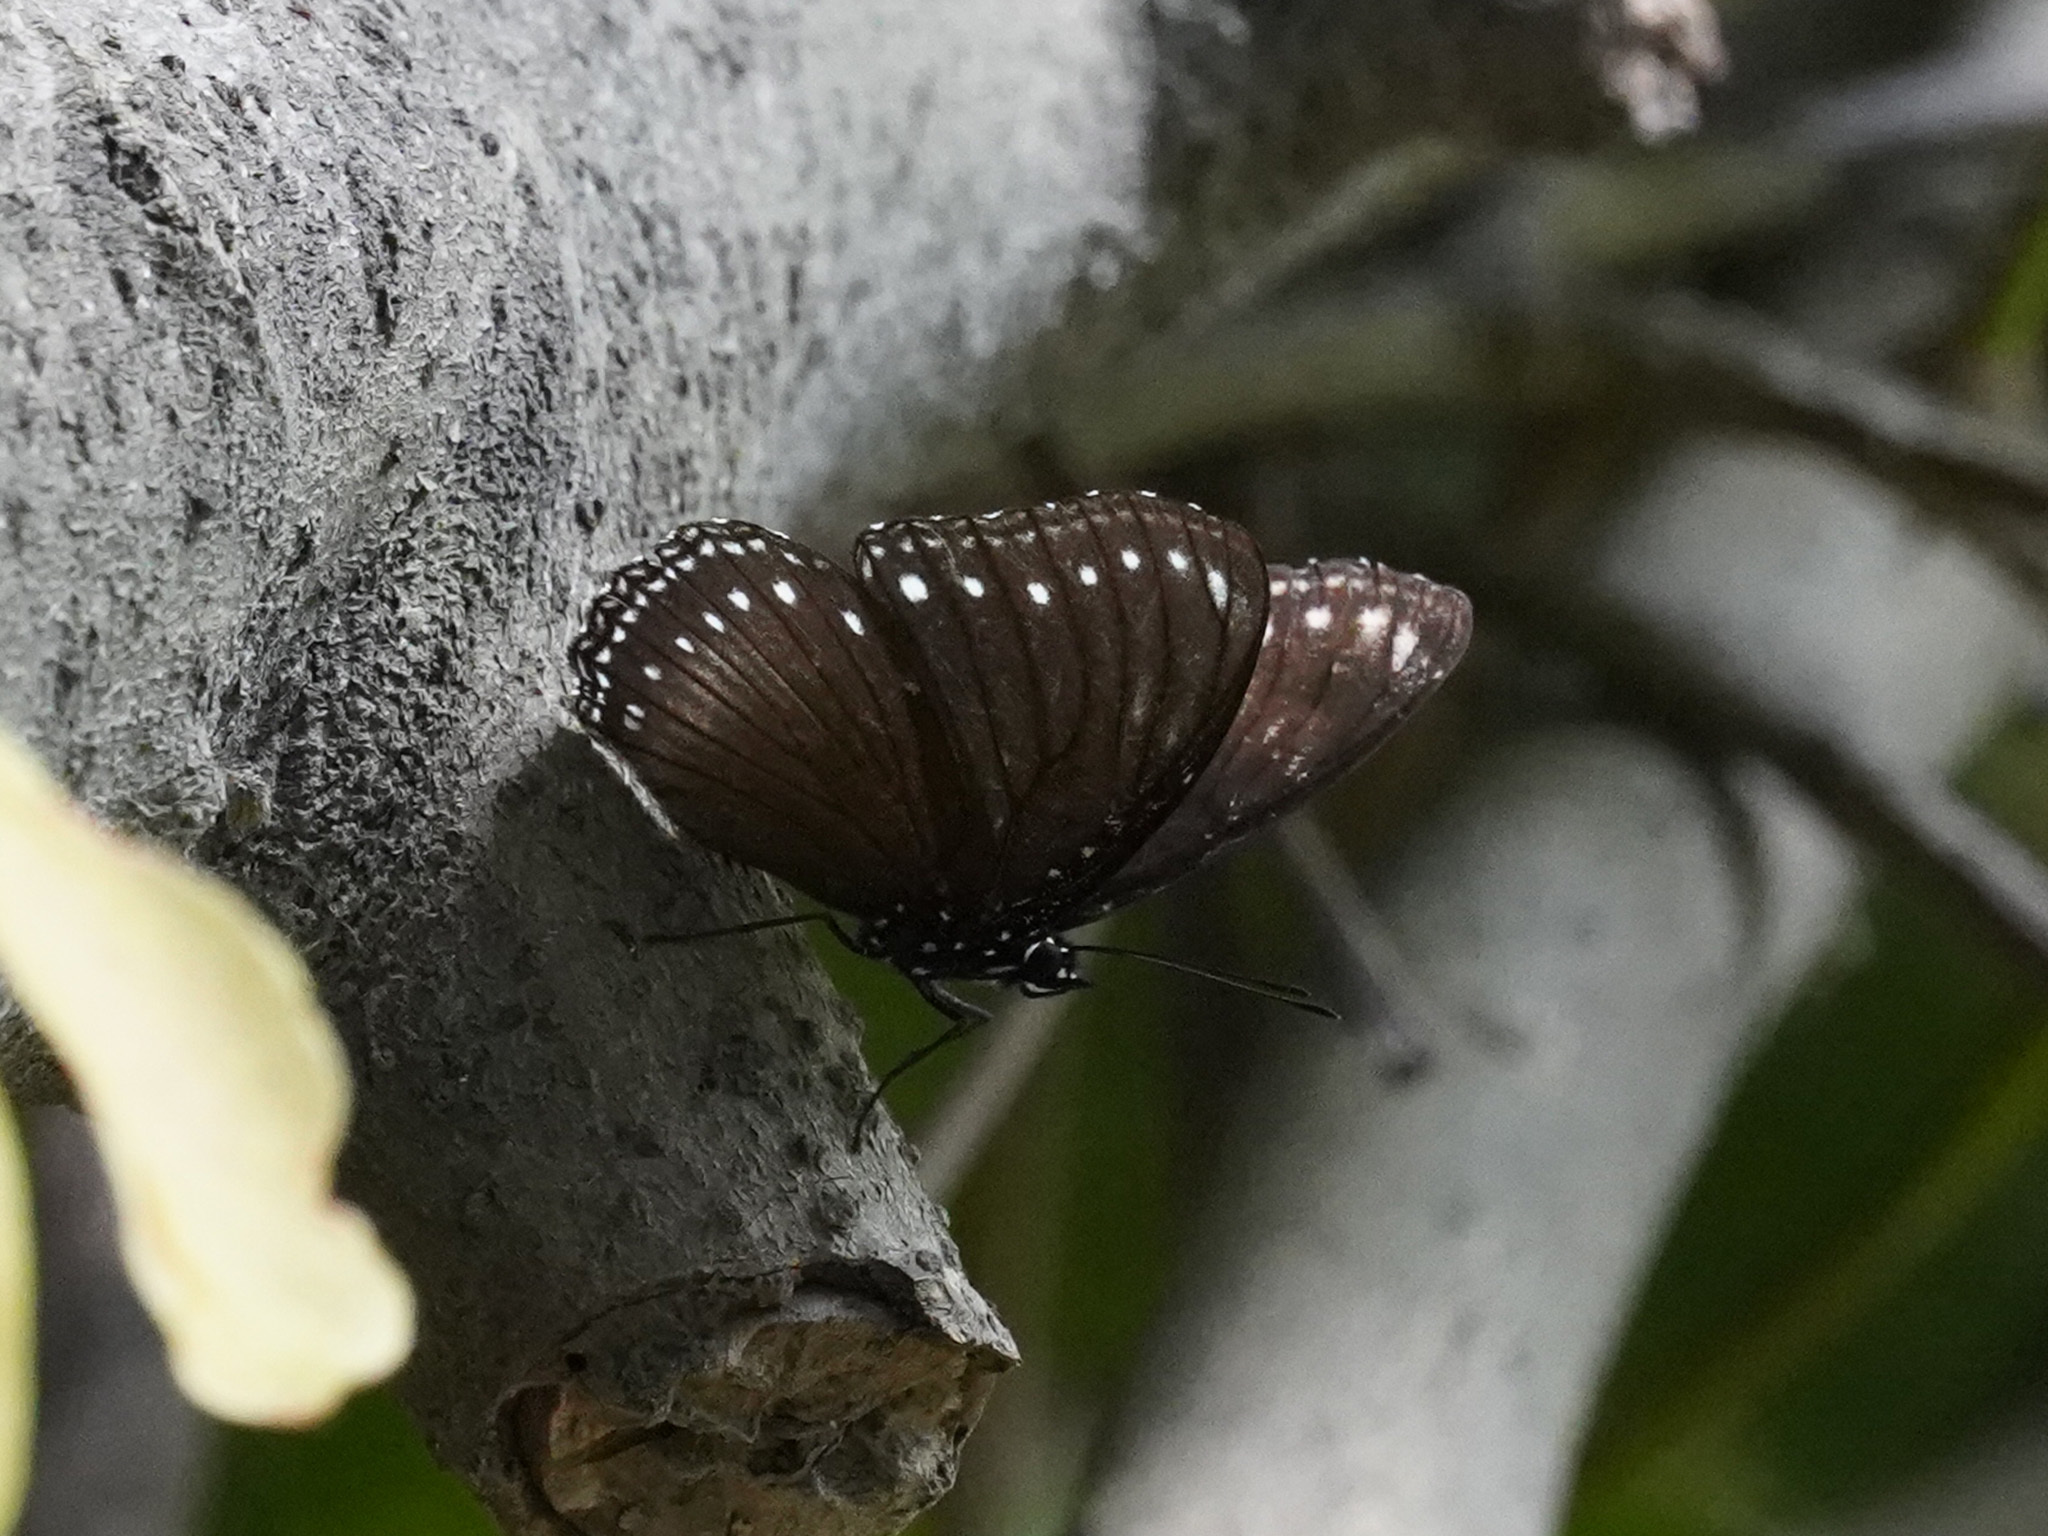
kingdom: Animalia
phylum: Arthropoda
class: Insecta
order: Lepidoptera
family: Nymphalidae
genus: Hypolimnas
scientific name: Hypolimnas anomala
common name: Malayan eggfly
